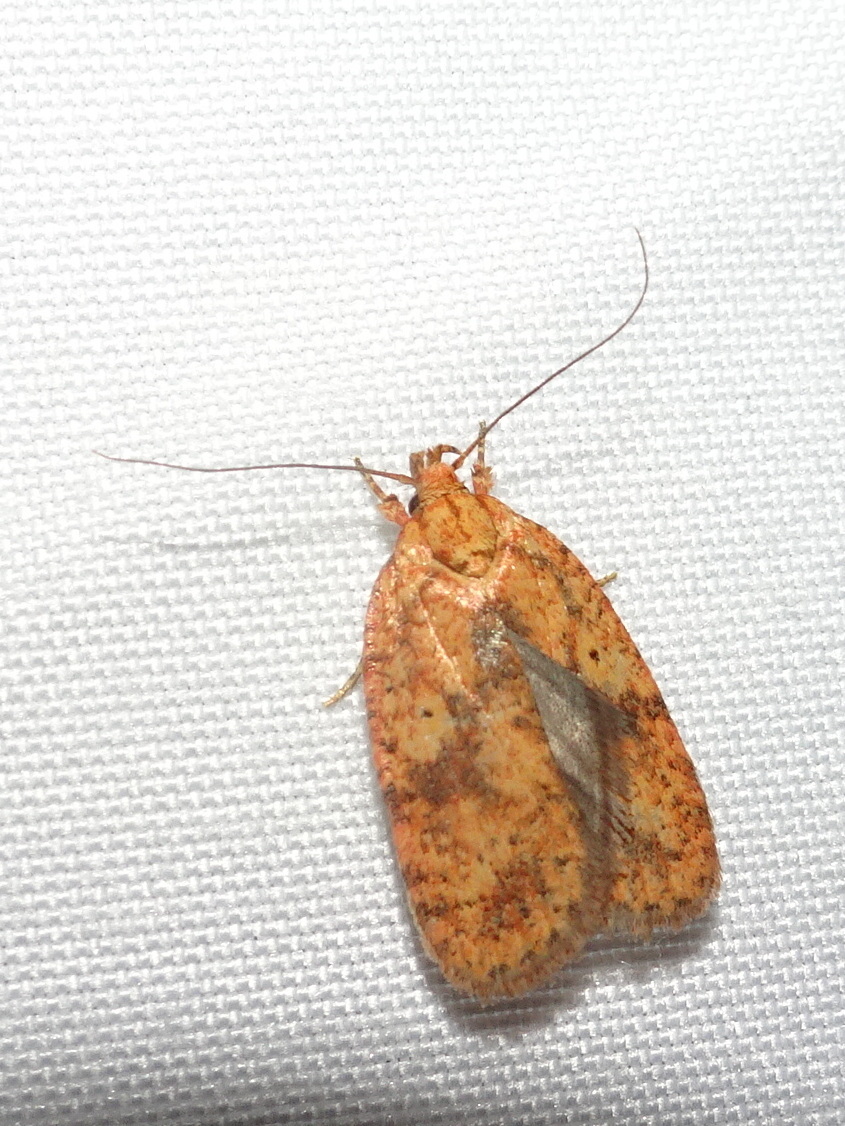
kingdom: Animalia
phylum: Arthropoda
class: Insecta
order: Lepidoptera
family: Depressariidae
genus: Agonopterix
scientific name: Agonopterix robiniella
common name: Four-dotted agonopterix moth
